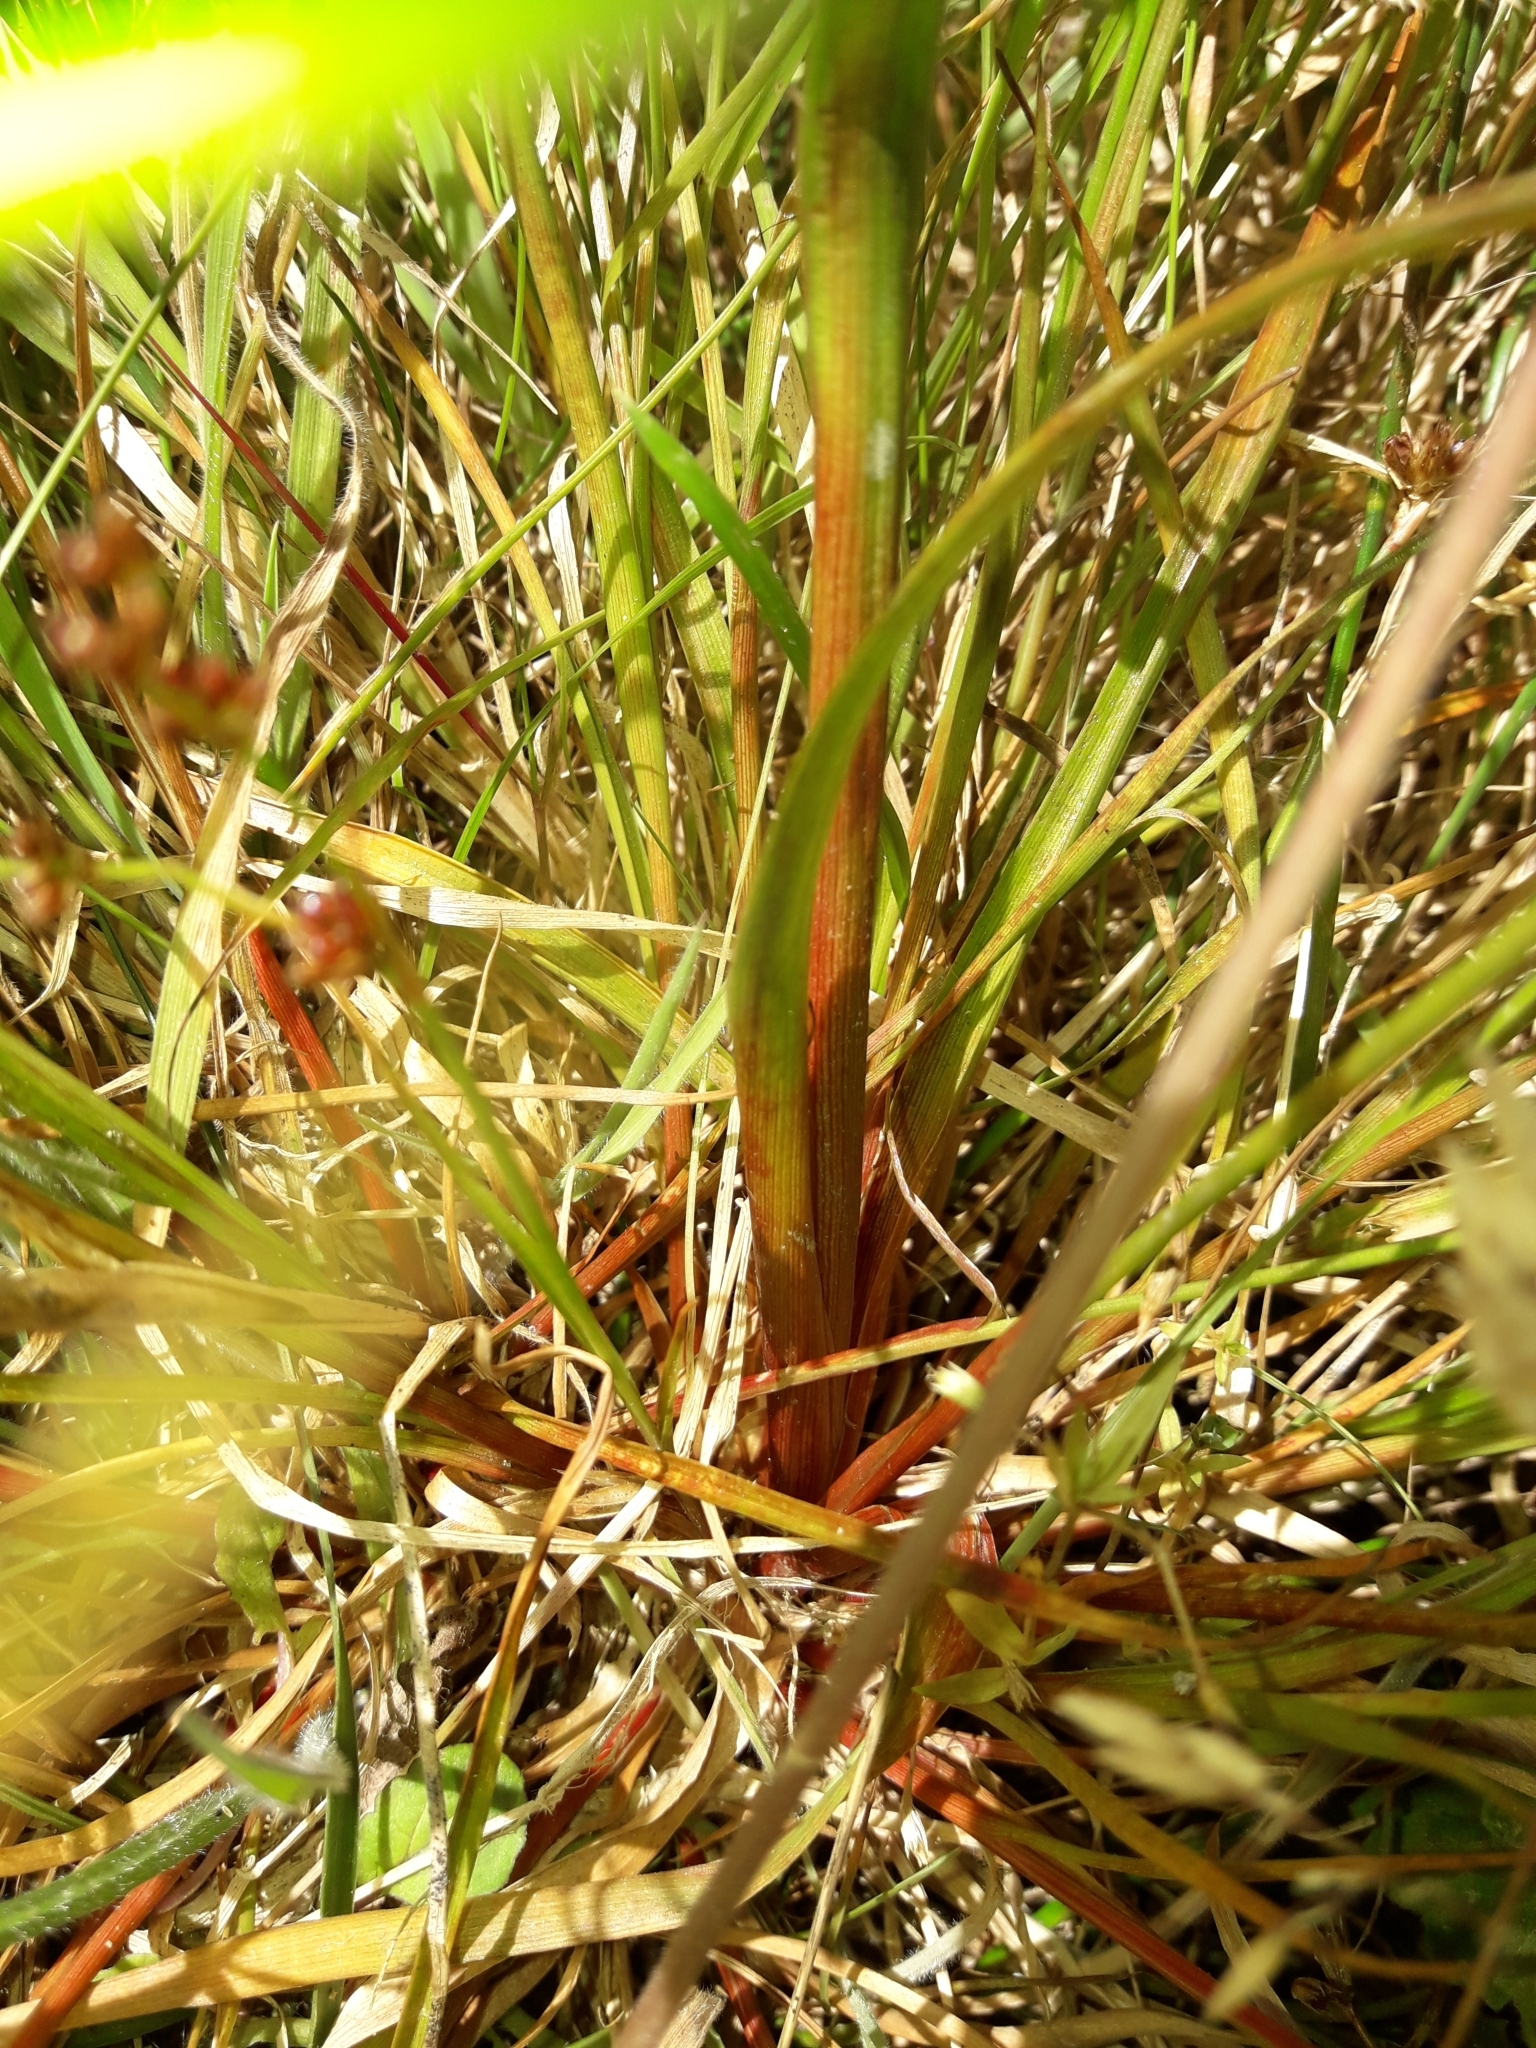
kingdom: Plantae
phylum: Tracheophyta
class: Liliopsida
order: Poales
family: Juncaceae
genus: Juncus
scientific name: Juncus planifolius
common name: Broadleaf rush
